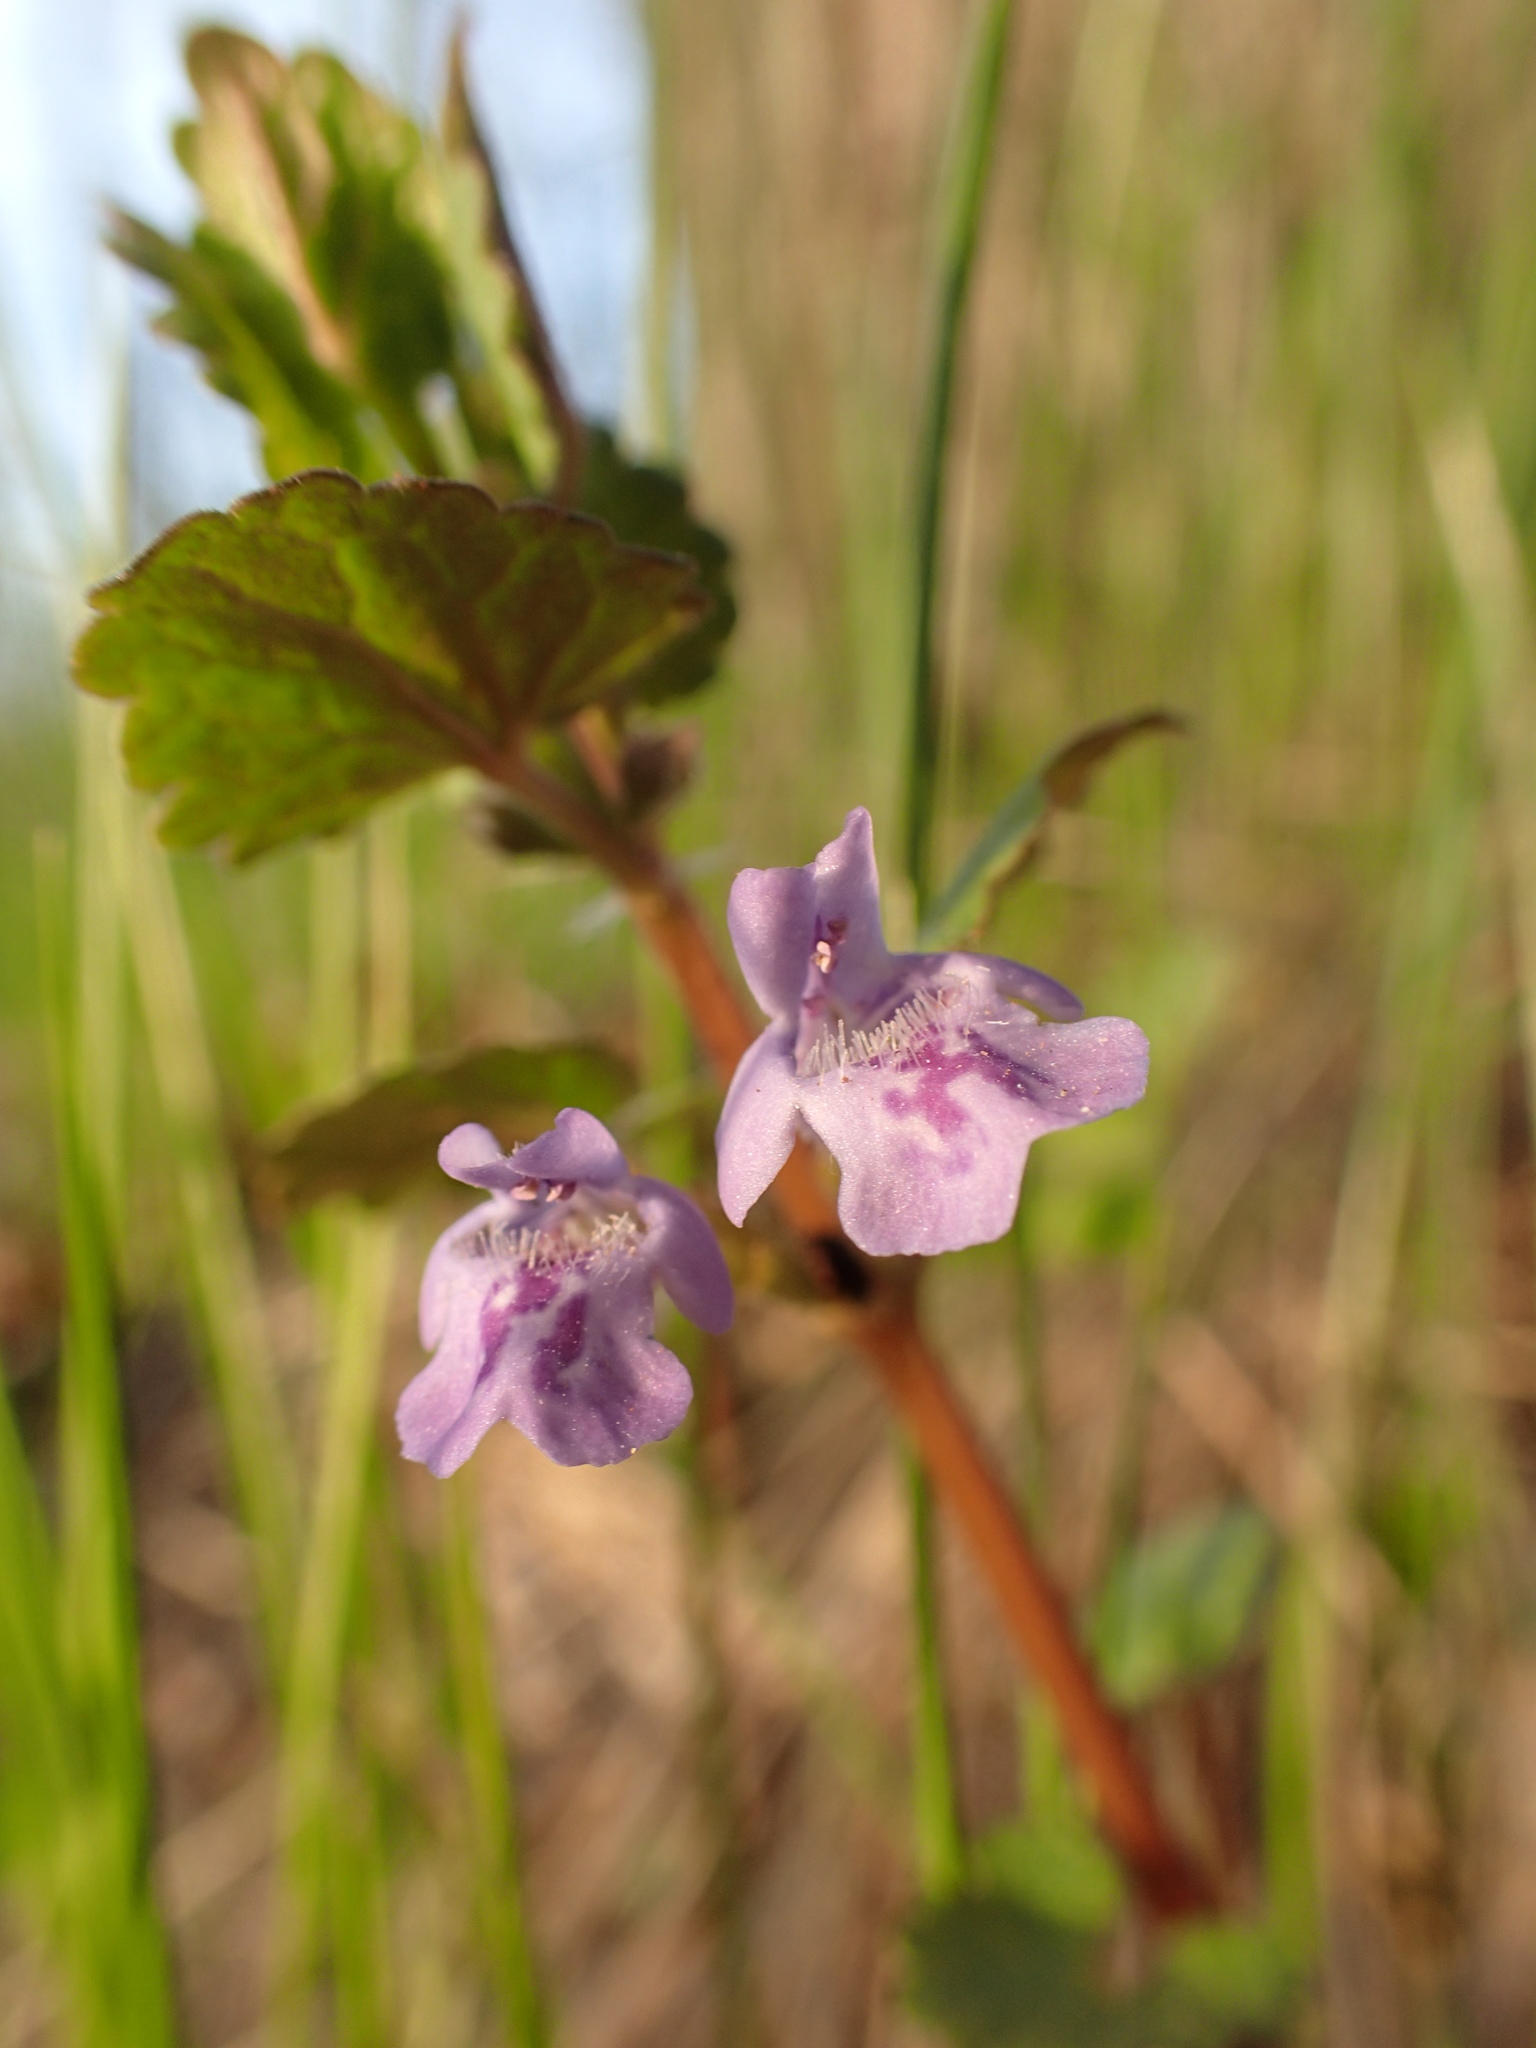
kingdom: Plantae
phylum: Tracheophyta
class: Magnoliopsida
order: Lamiales
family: Lamiaceae
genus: Glechoma
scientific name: Glechoma hederacea
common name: Ground ivy
